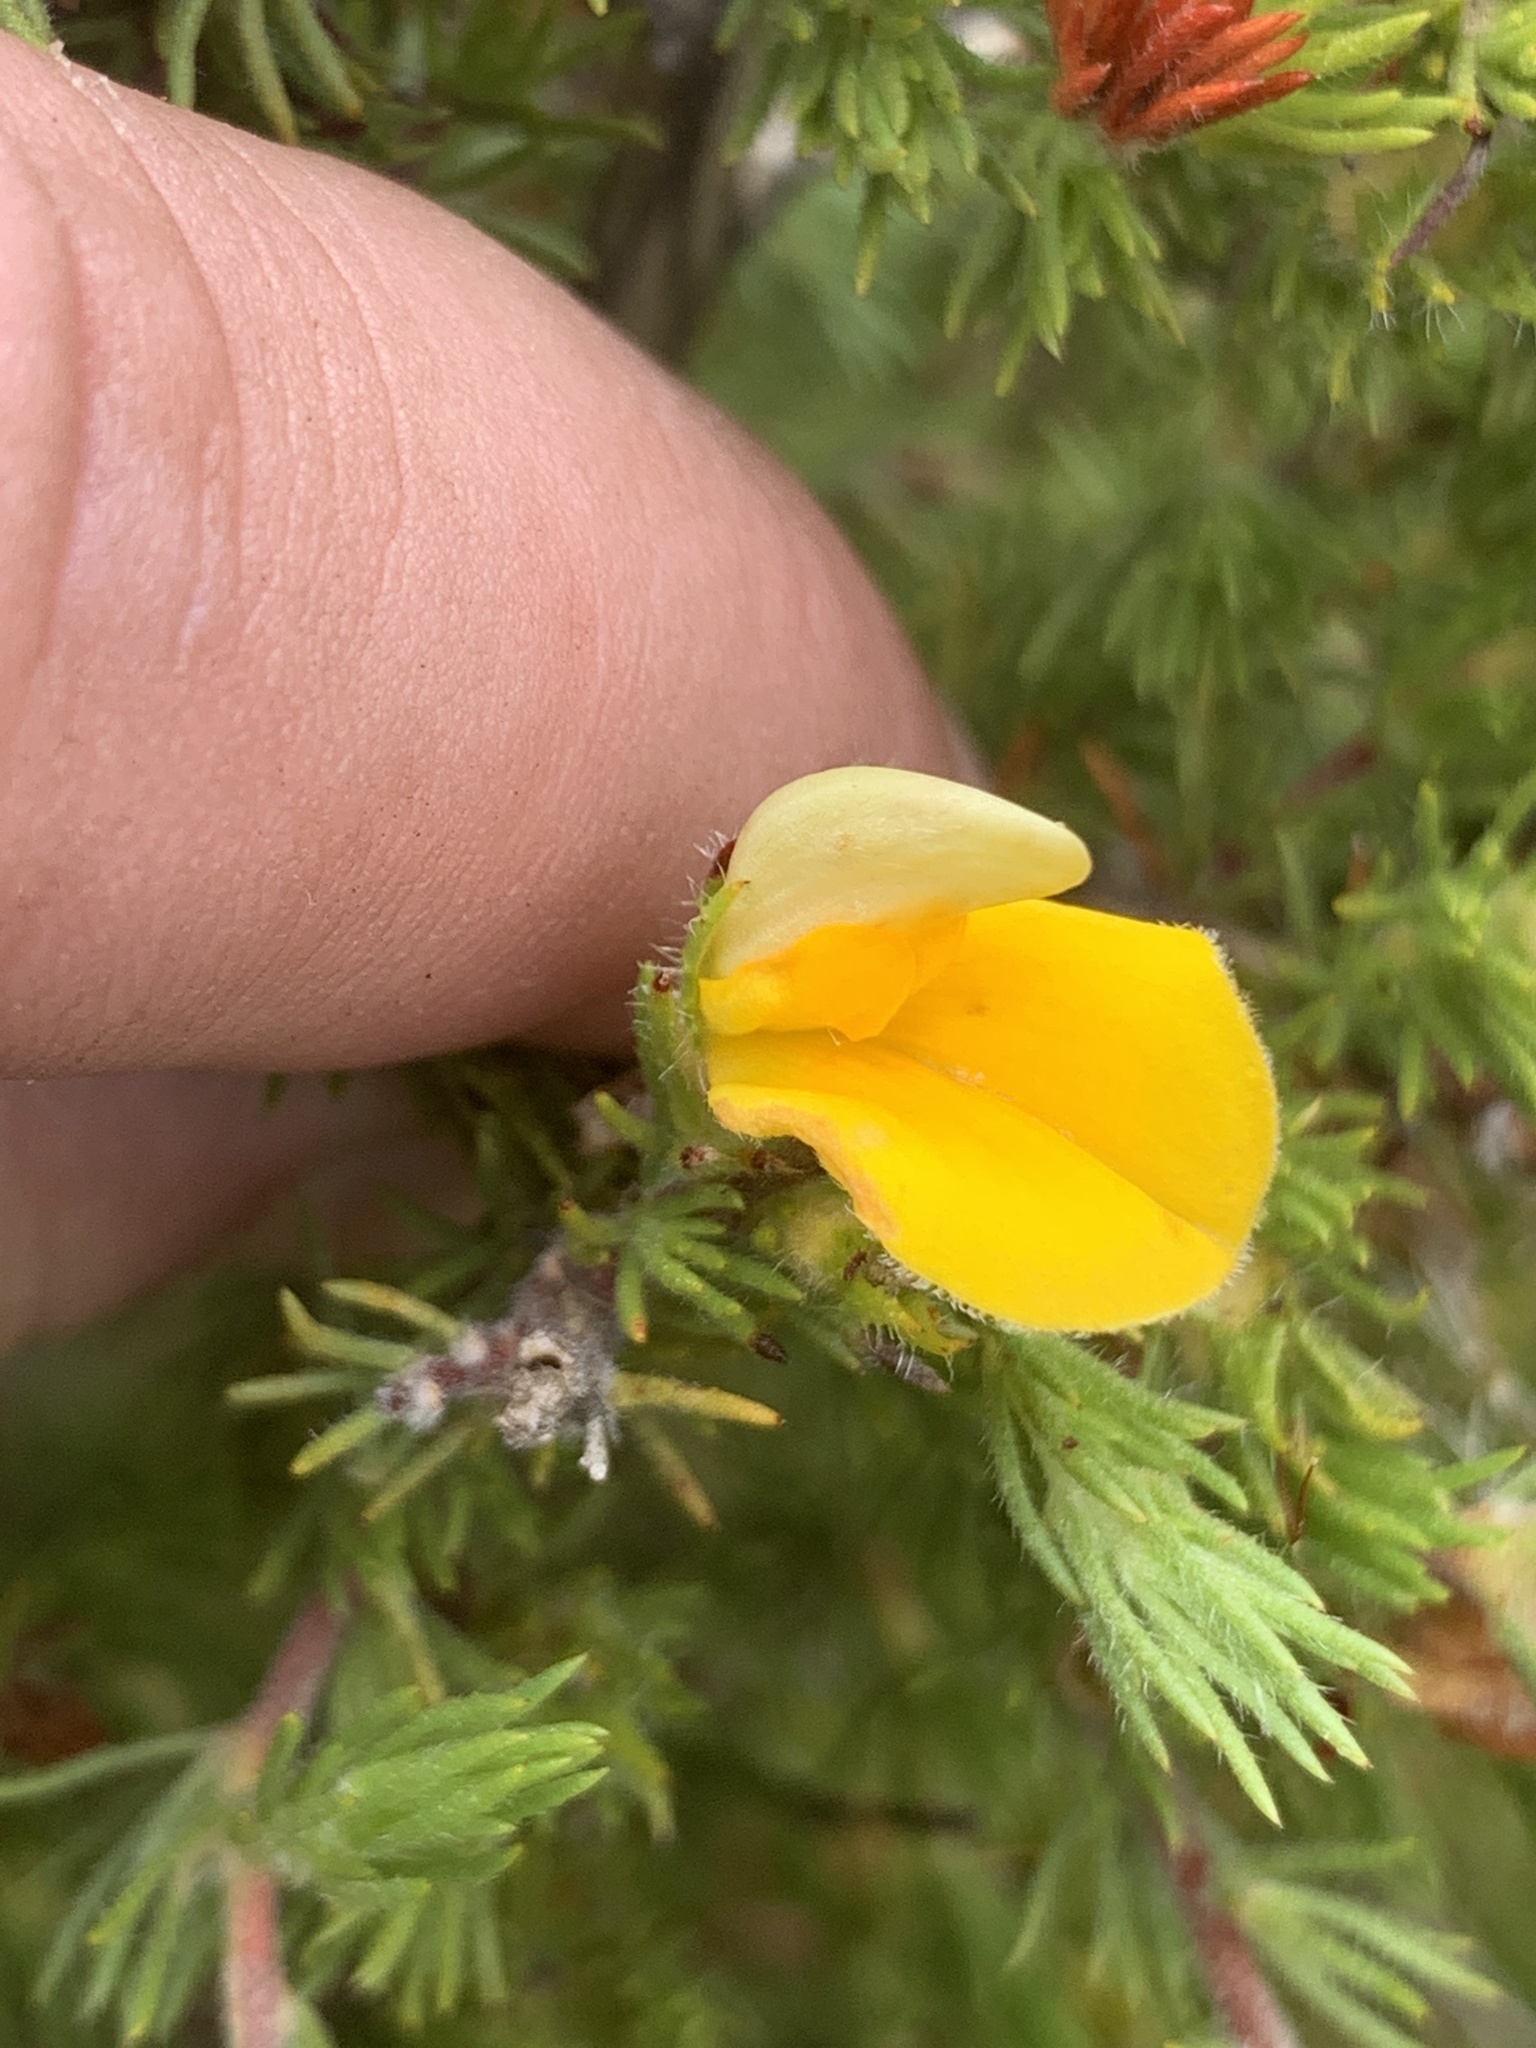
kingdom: Plantae
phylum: Tracheophyta
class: Magnoliopsida
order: Fabales
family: Fabaceae
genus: Aspalathus
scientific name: Aspalathus spicata
